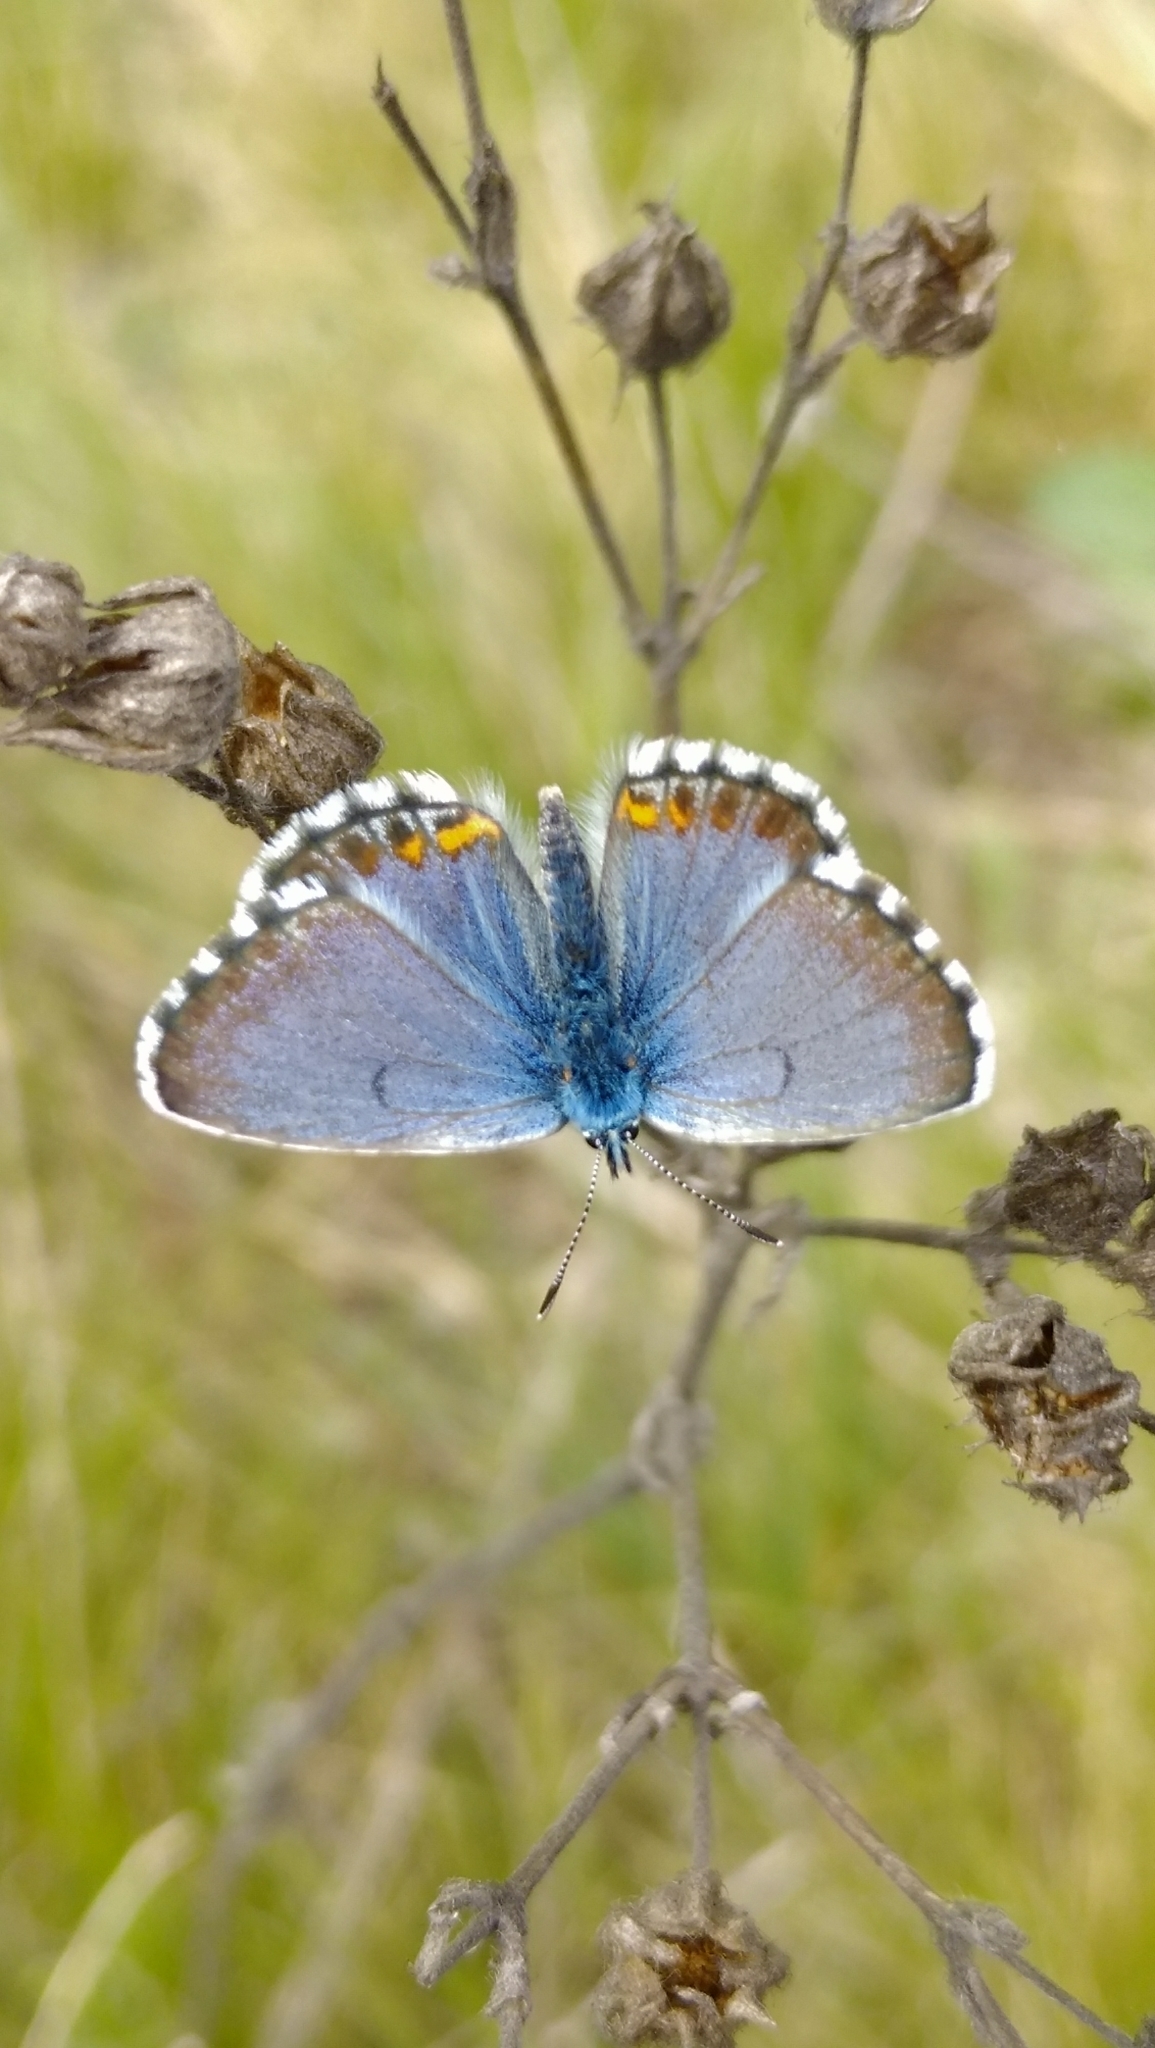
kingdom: Animalia
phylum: Arthropoda
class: Insecta
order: Lepidoptera
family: Lycaenidae
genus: Pseudophilotes
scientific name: Pseudophilotes bavius
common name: Bavius blue
